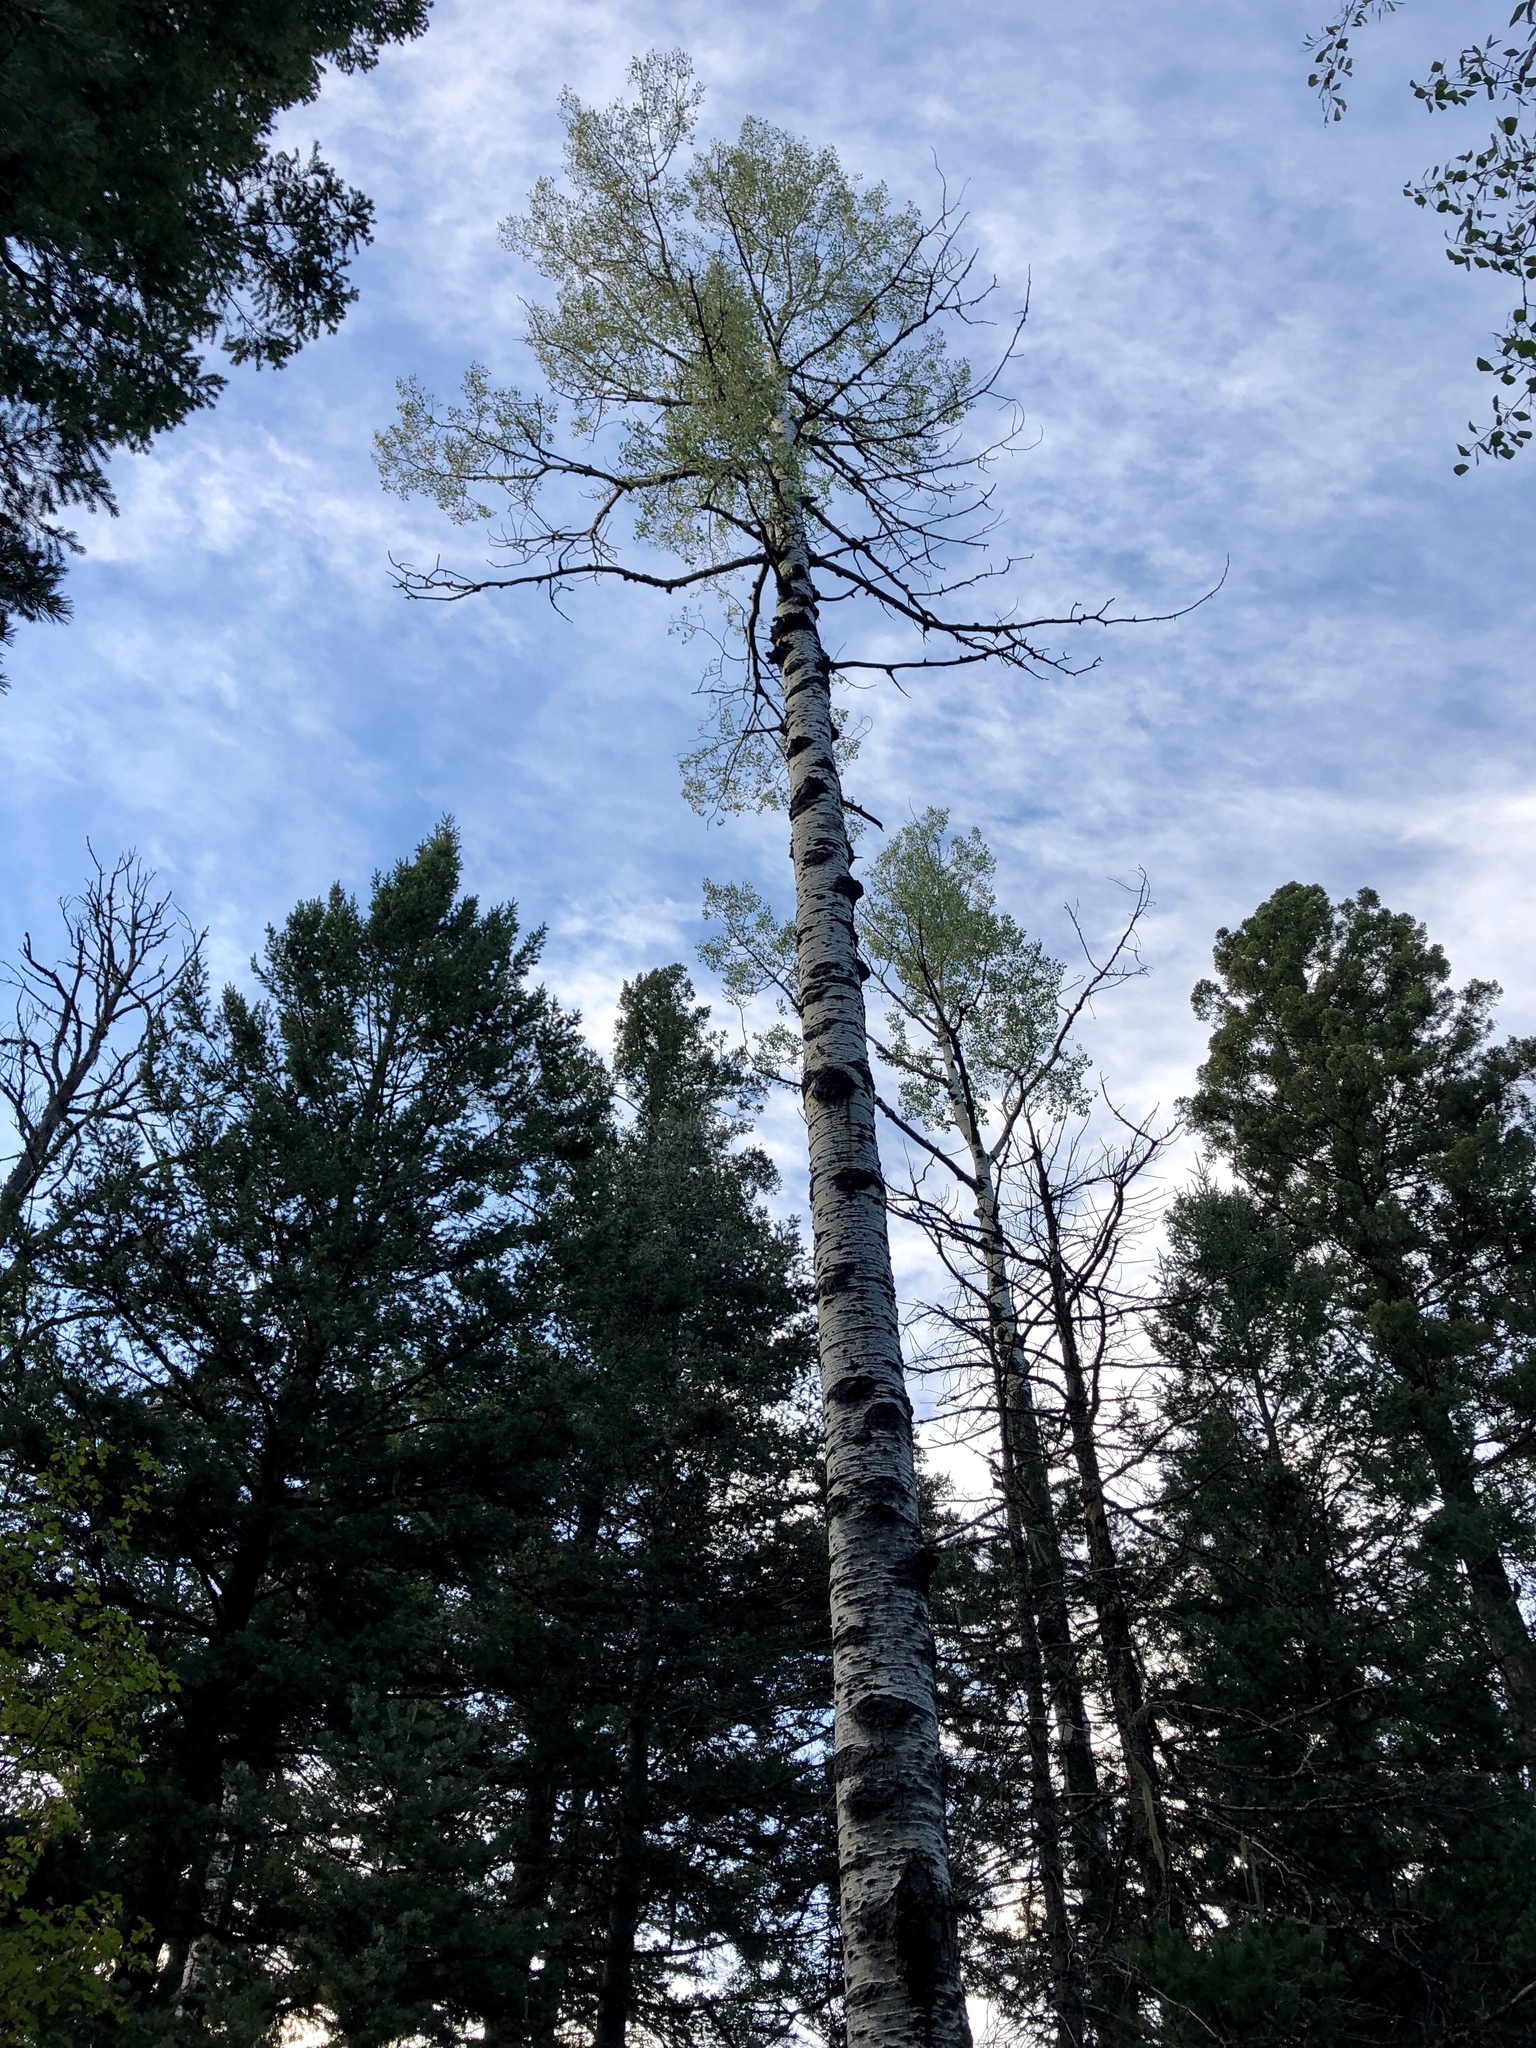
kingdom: Plantae
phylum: Tracheophyta
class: Magnoliopsida
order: Malpighiales
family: Salicaceae
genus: Populus
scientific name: Populus tremuloides
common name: Quaking aspen
